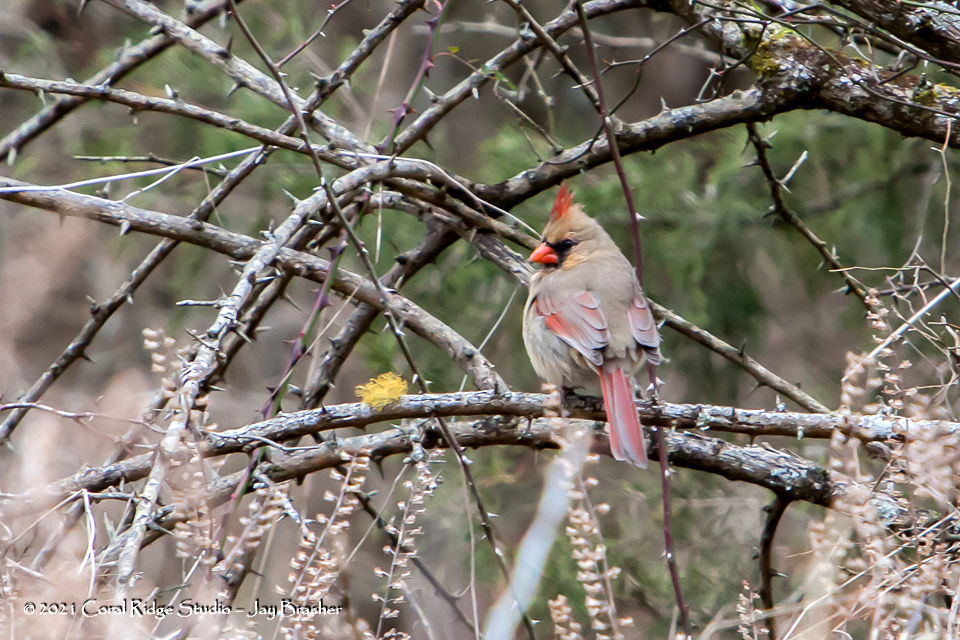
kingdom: Animalia
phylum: Chordata
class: Aves
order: Passeriformes
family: Cardinalidae
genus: Cardinalis
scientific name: Cardinalis cardinalis
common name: Northern cardinal
